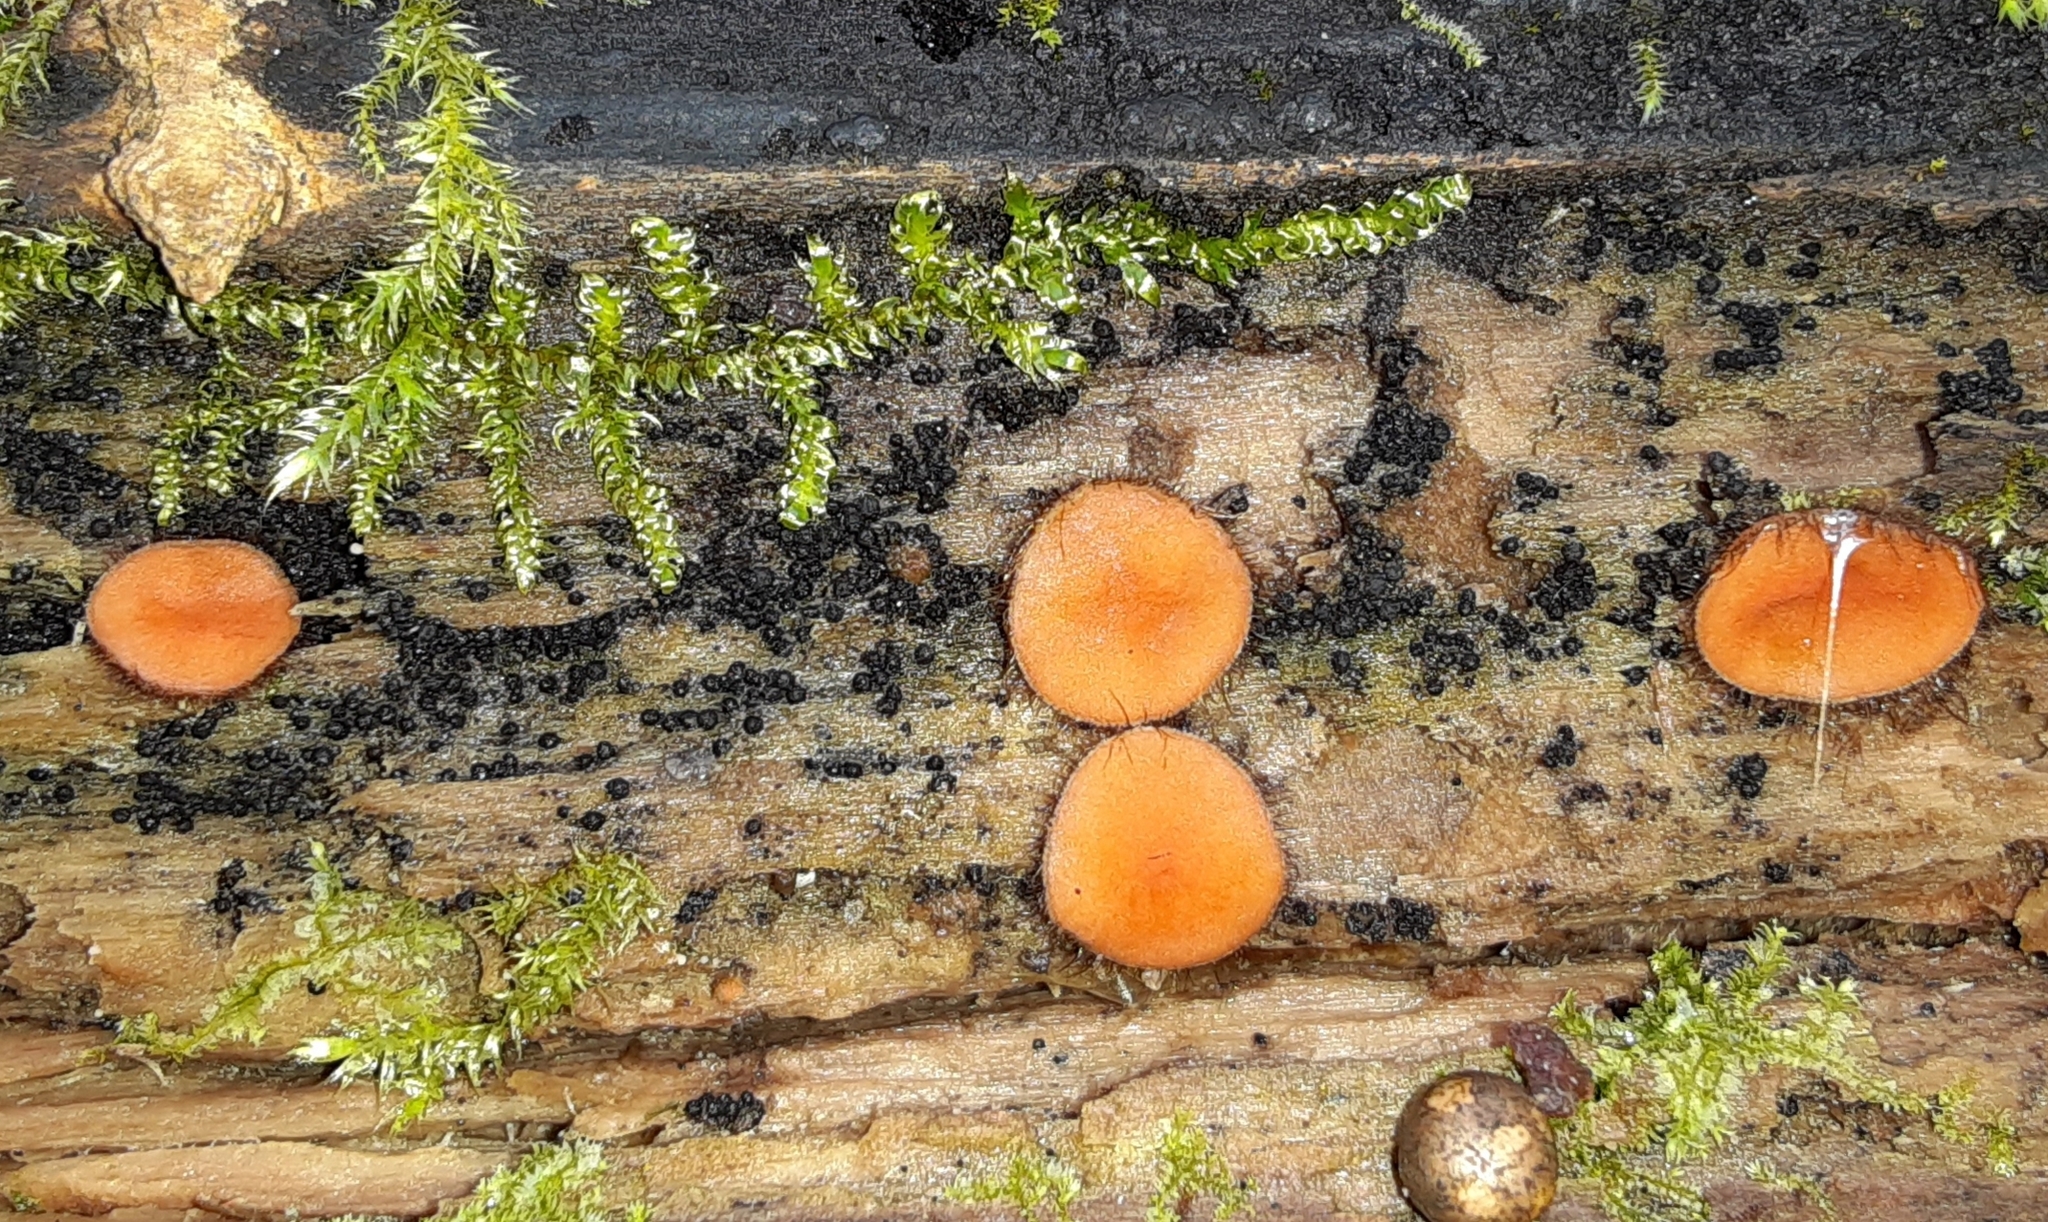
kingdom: Fungi
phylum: Ascomycota
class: Pezizomycetes
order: Pezizales
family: Pyronemataceae
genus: Scutellinia
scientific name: Scutellinia
